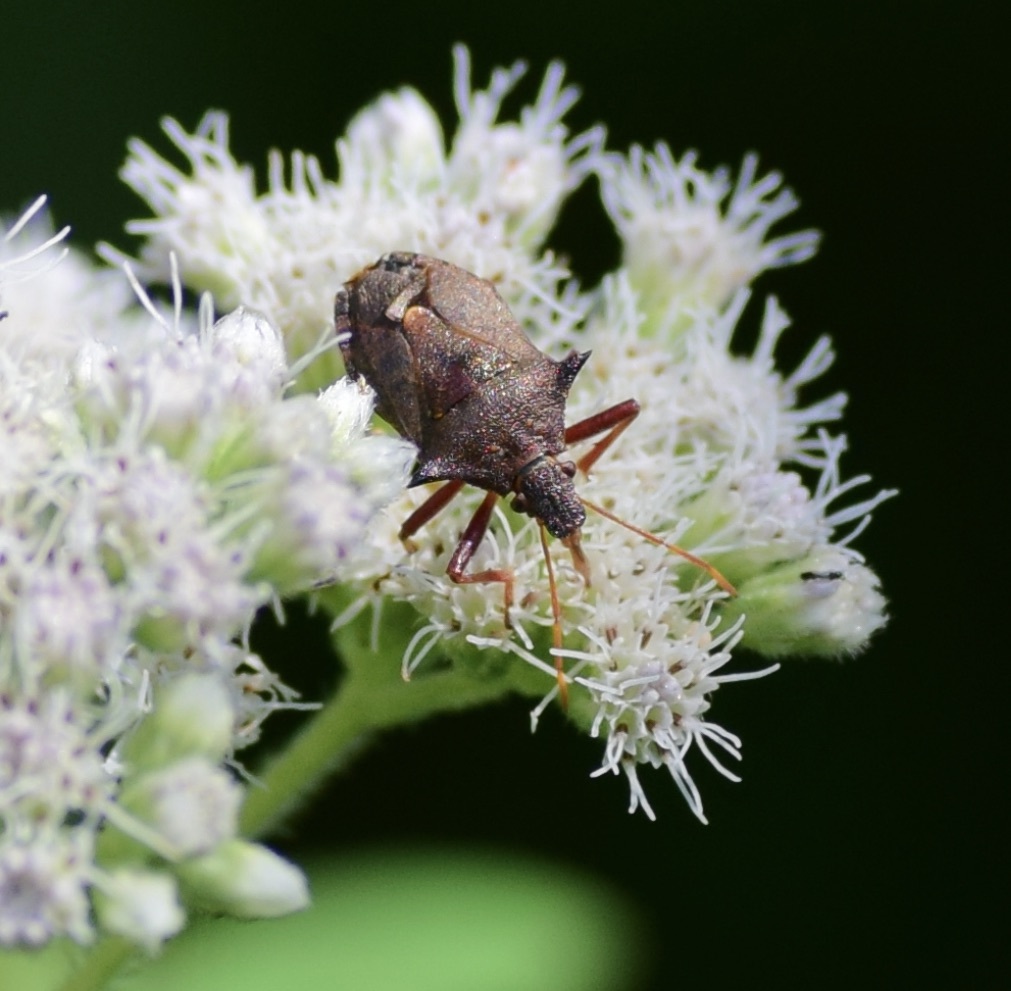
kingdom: Animalia
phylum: Arthropoda
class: Insecta
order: Hemiptera
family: Pentatomidae
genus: Picromerus
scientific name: Picromerus bidens
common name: Spiked shieldbug
